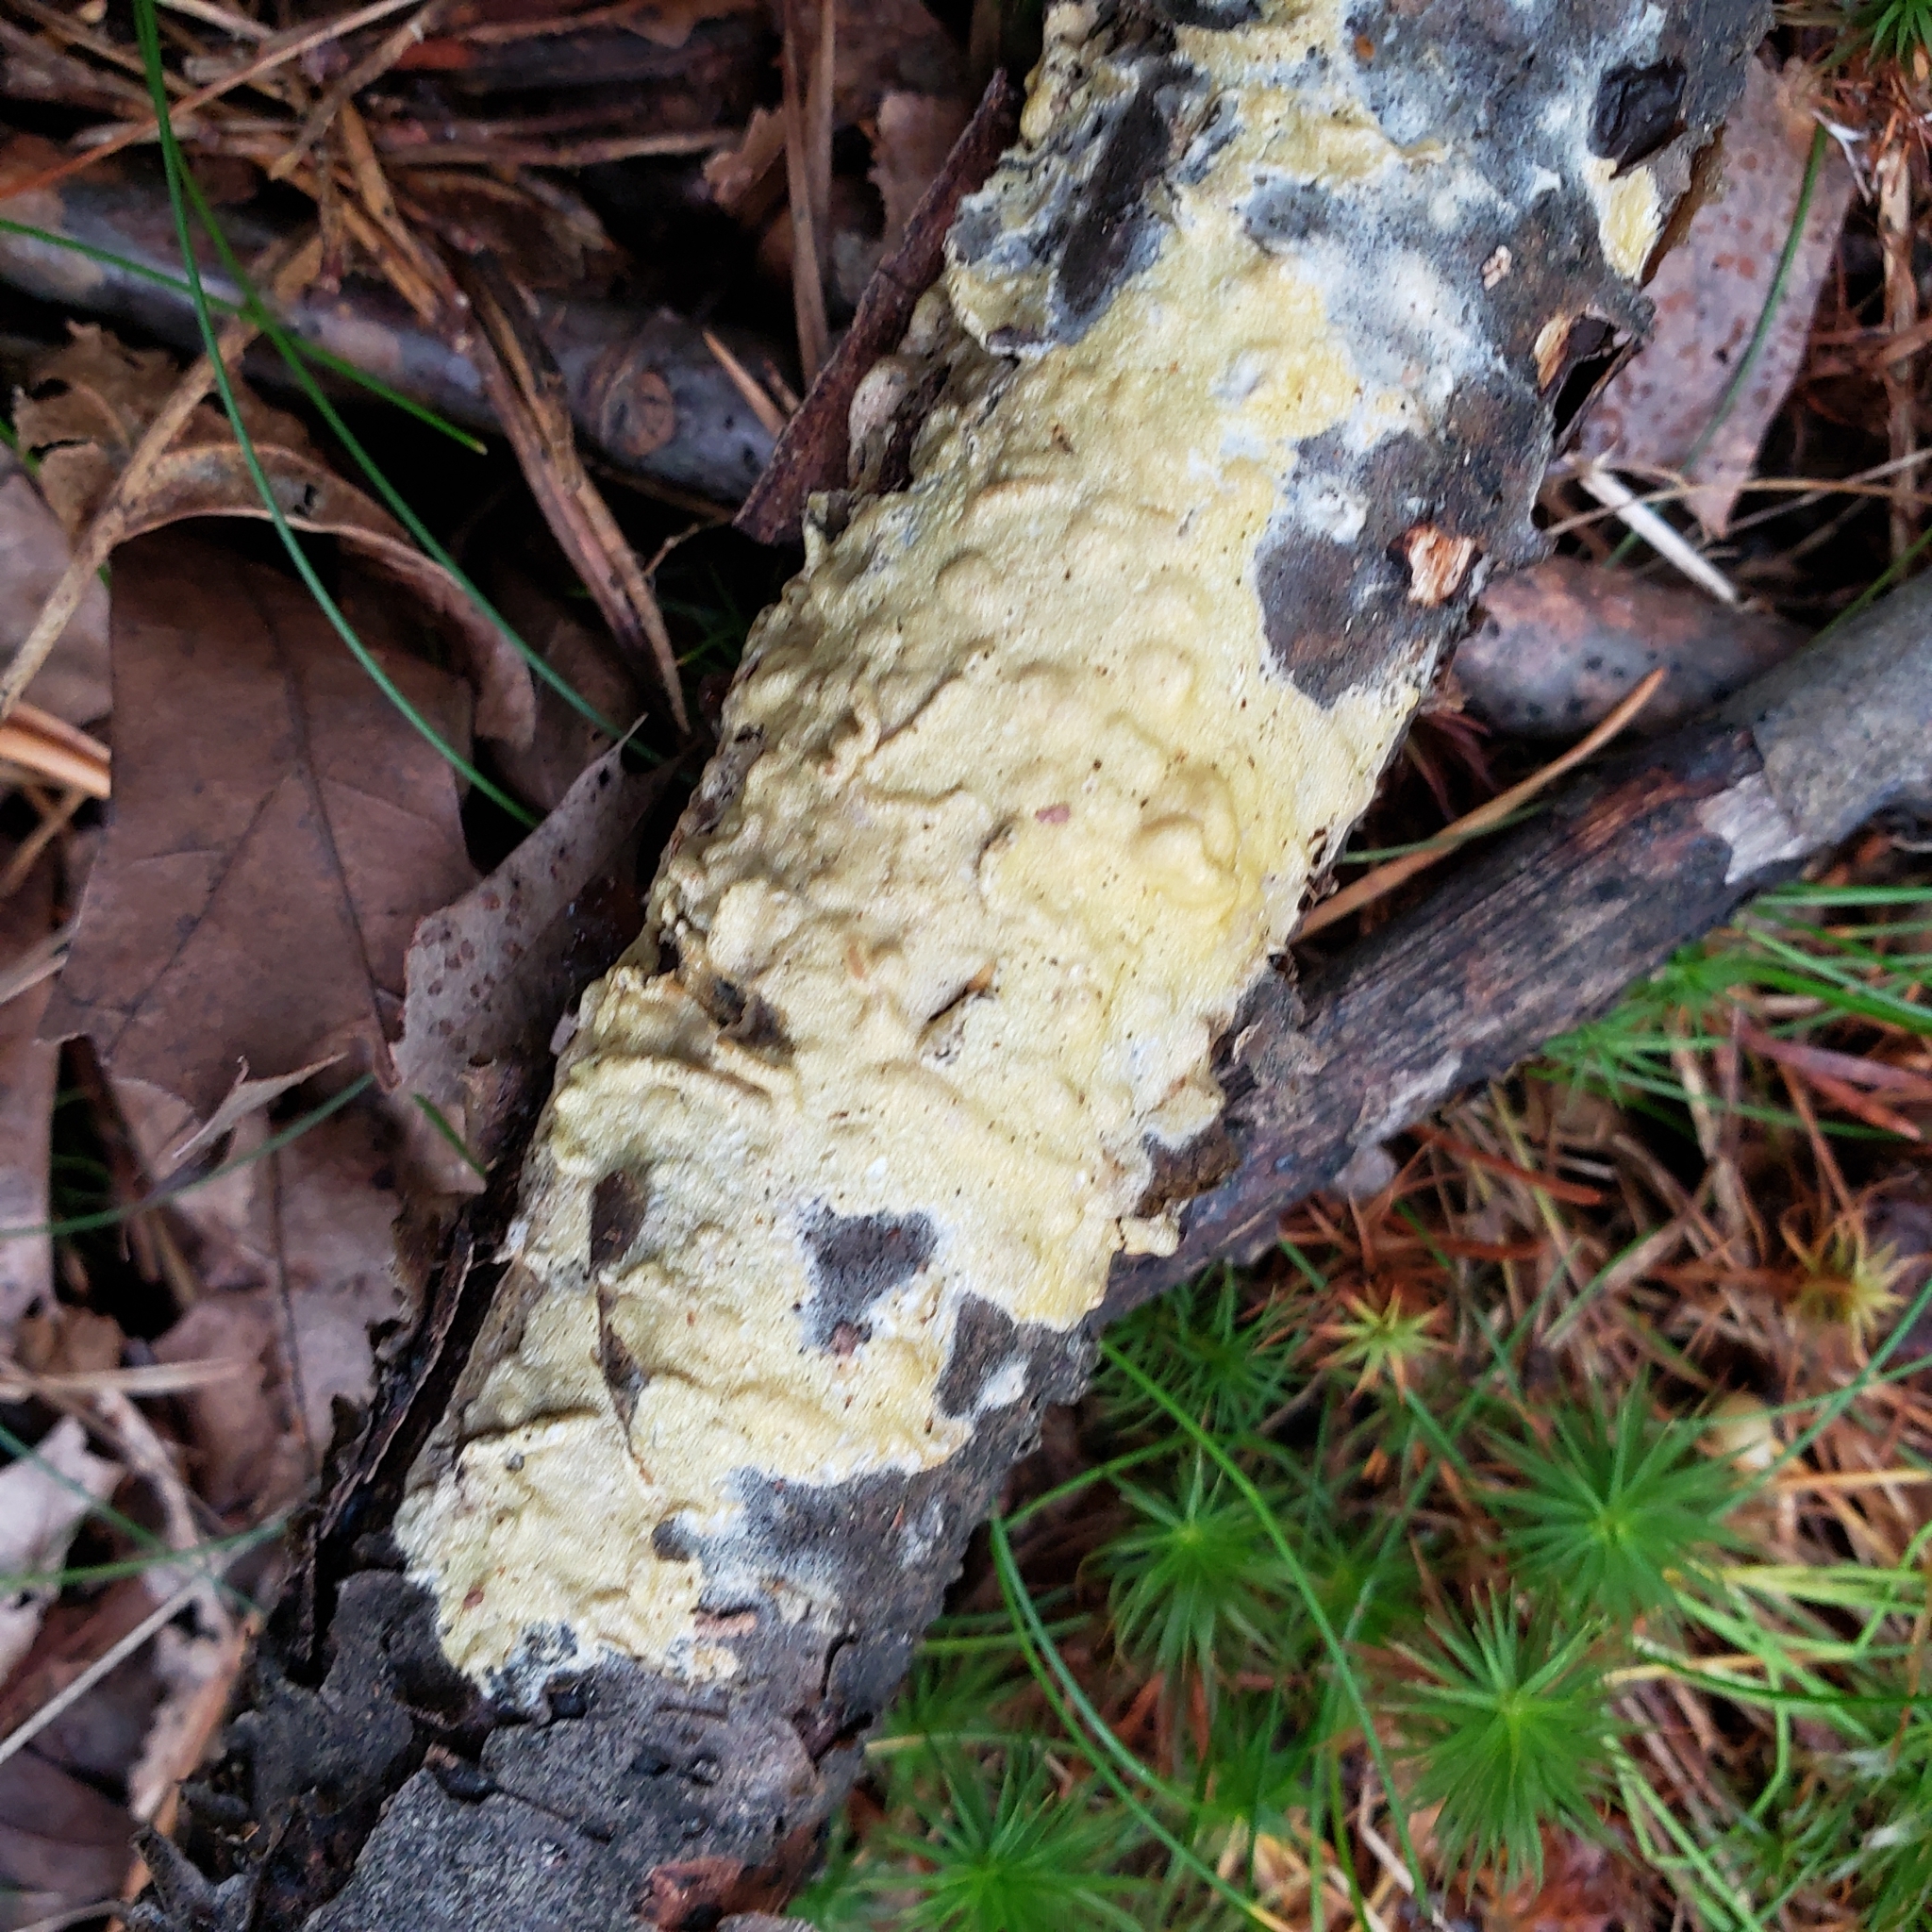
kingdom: Fungi
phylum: Ascomycota
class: Sordariomycetes
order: Hypocreales
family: Hypocreaceae
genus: Trichoderma
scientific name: Trichoderma sulphureum
